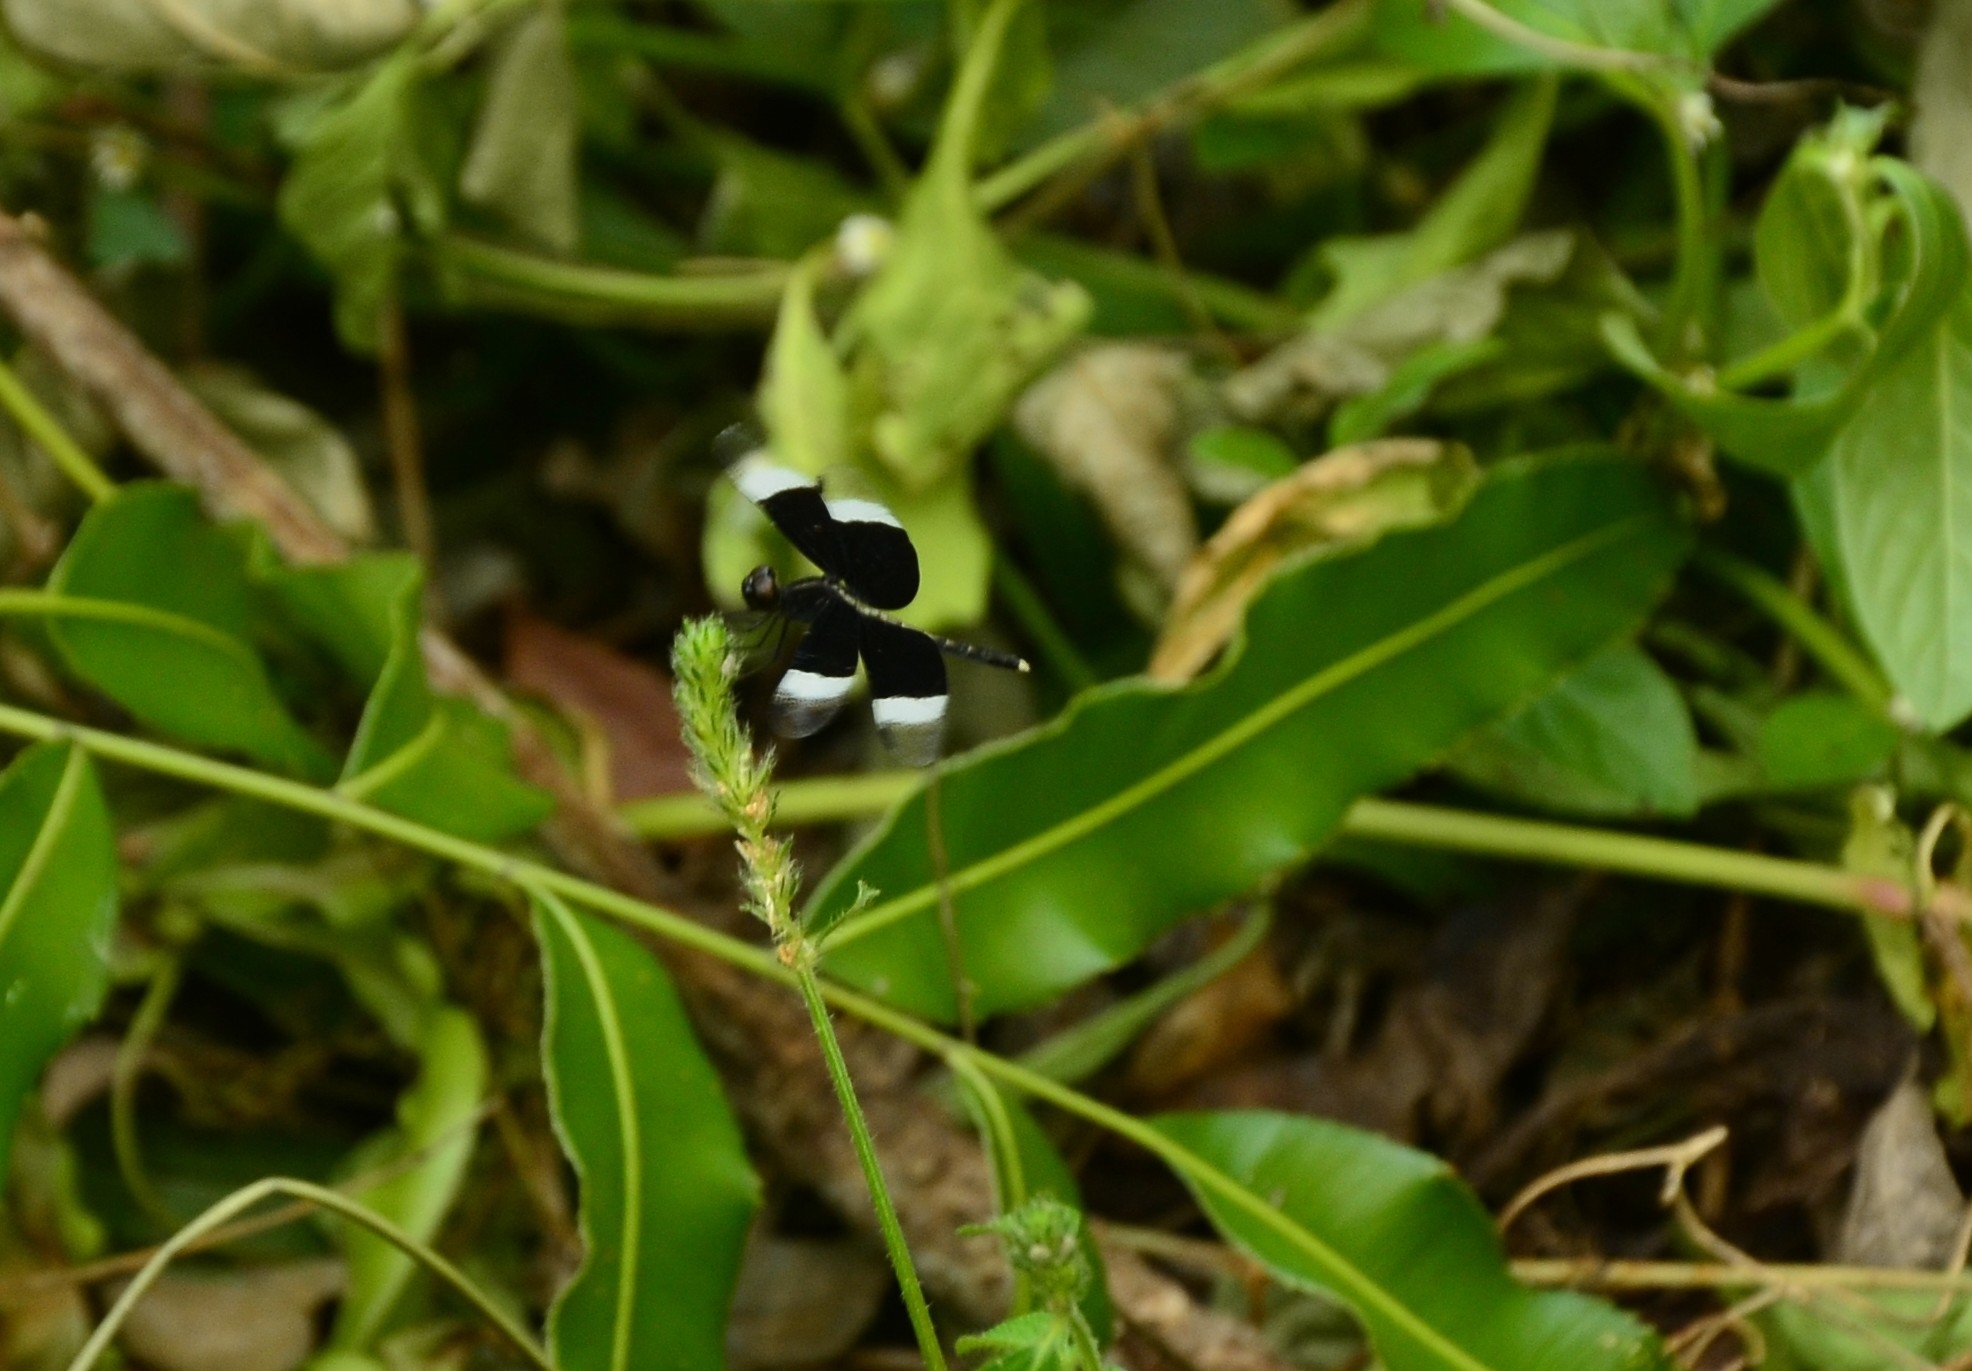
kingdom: Animalia
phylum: Arthropoda
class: Insecta
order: Odonata
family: Libellulidae
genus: Neurothemis
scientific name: Neurothemis tullia
